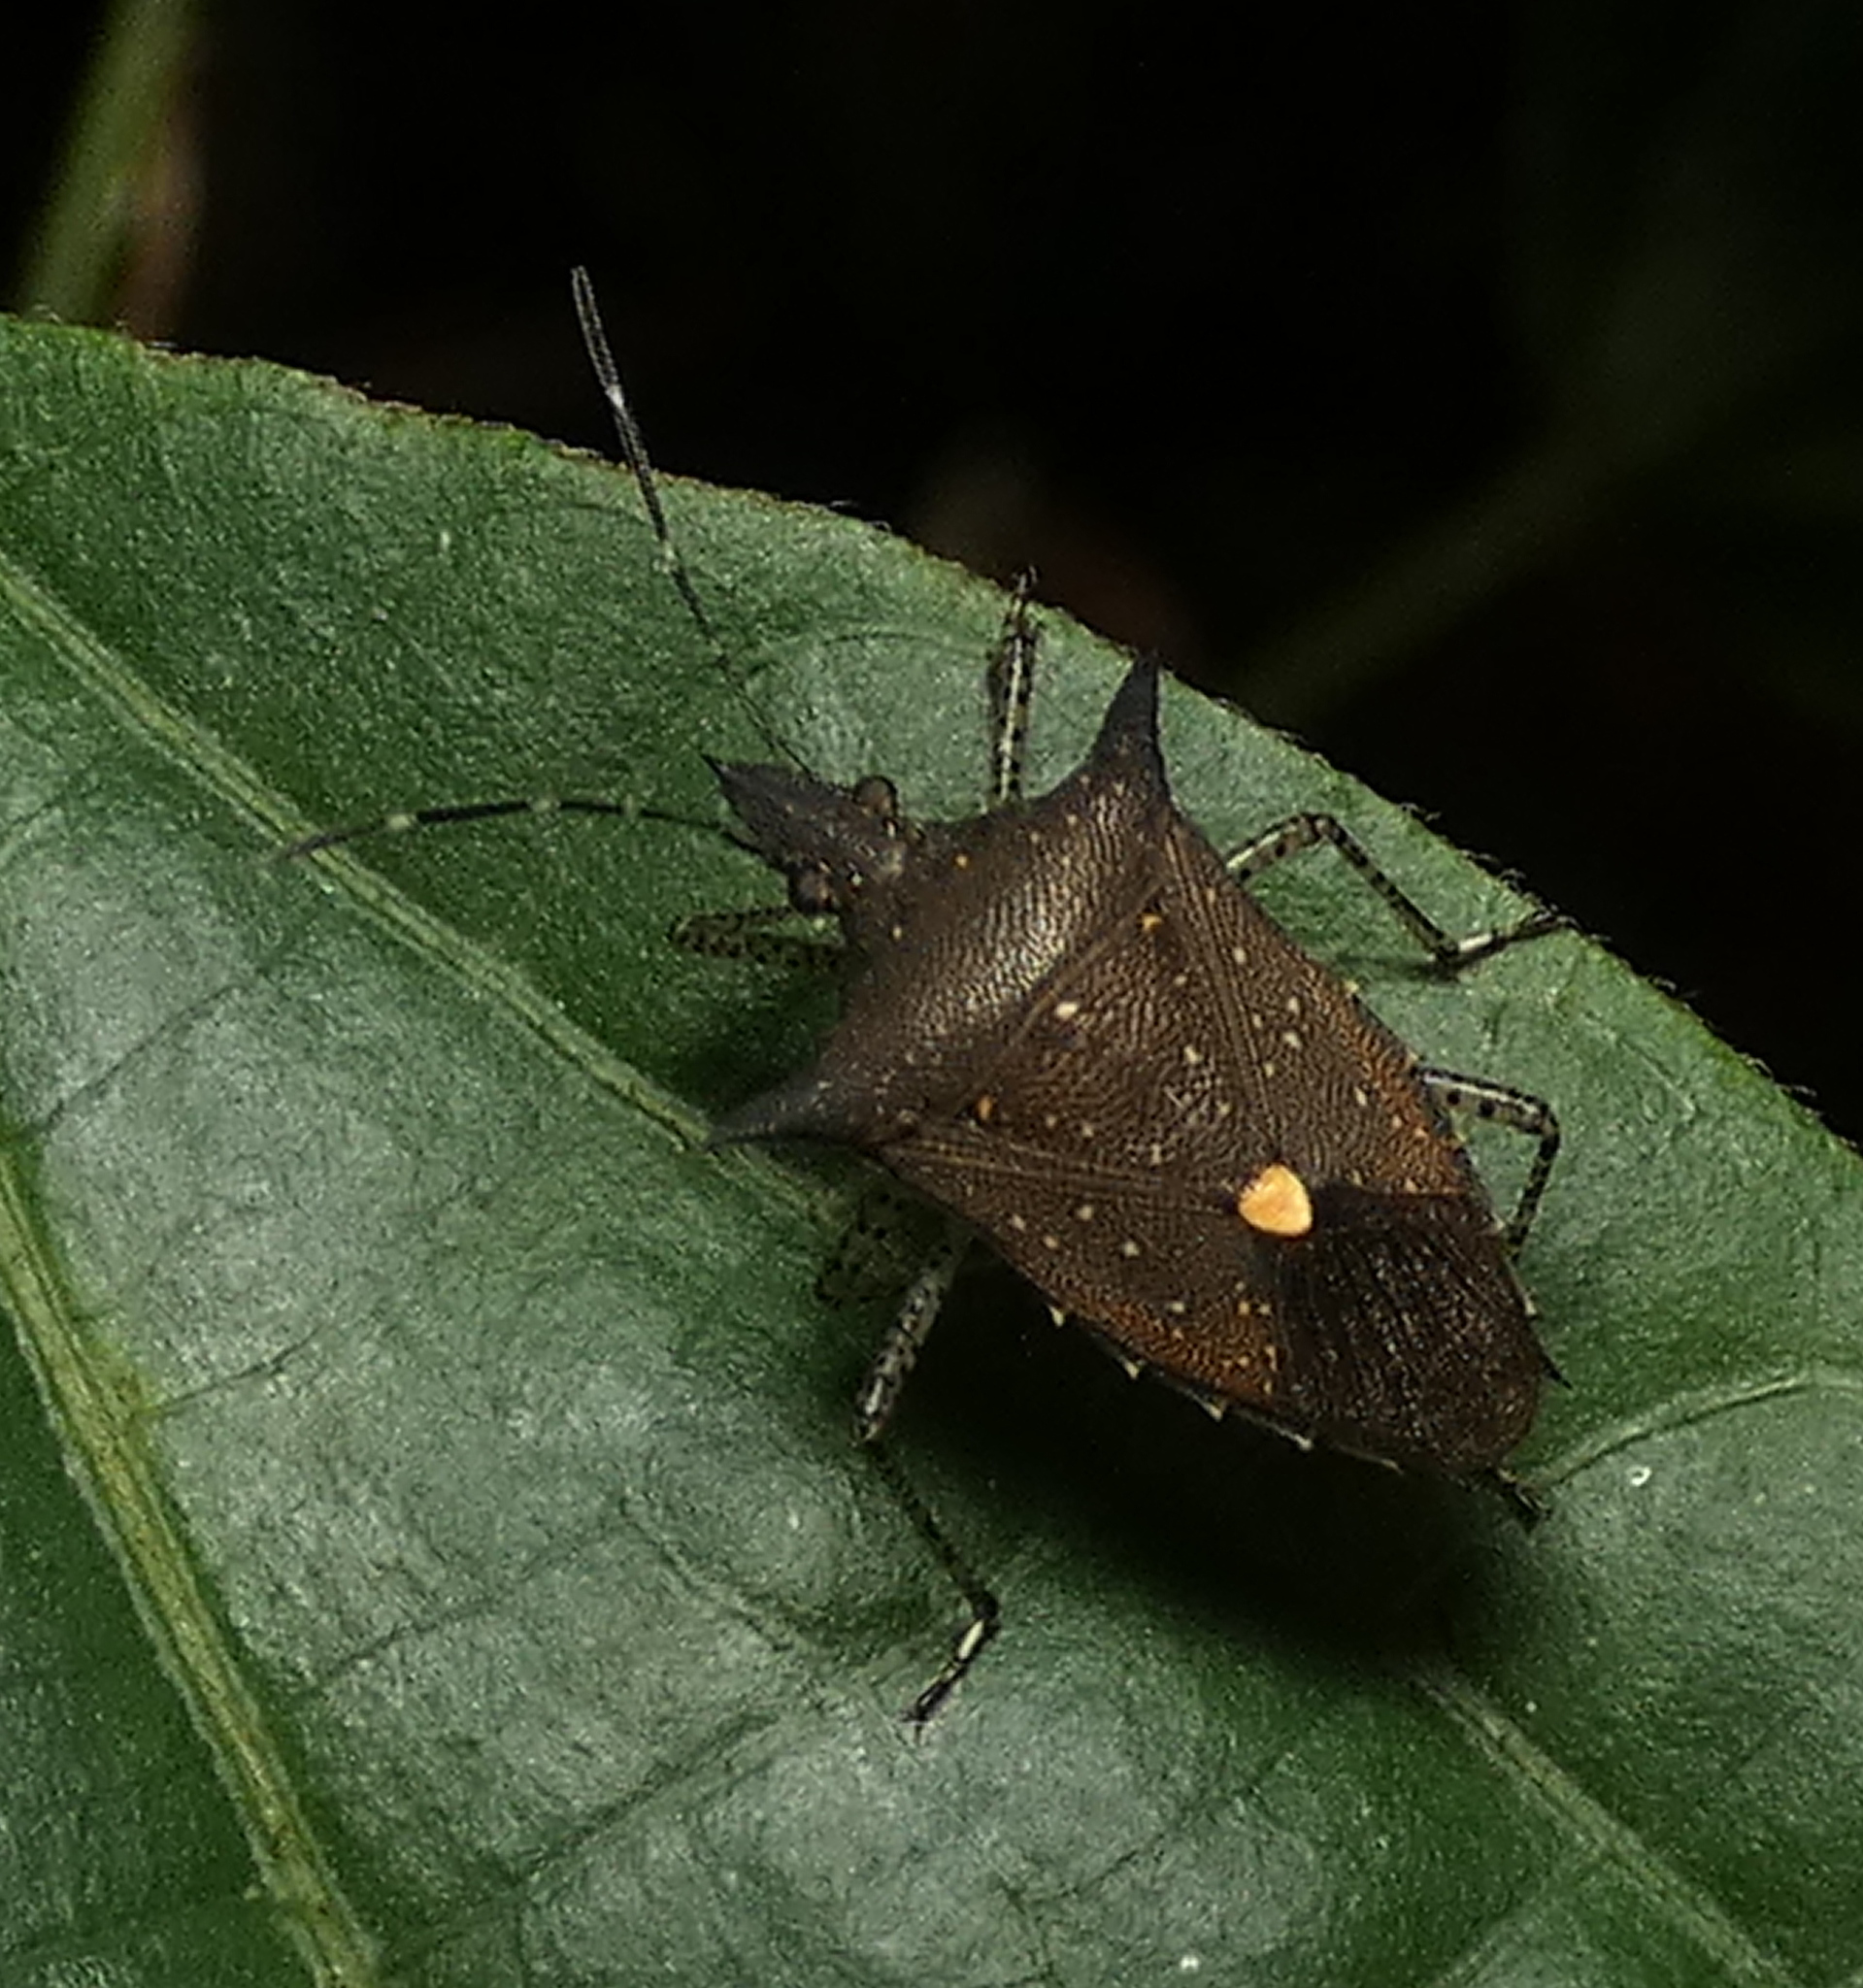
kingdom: Animalia
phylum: Arthropoda
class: Insecta
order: Hemiptera
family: Pentatomidae
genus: Proxys
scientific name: Proxys albopunctulatus
